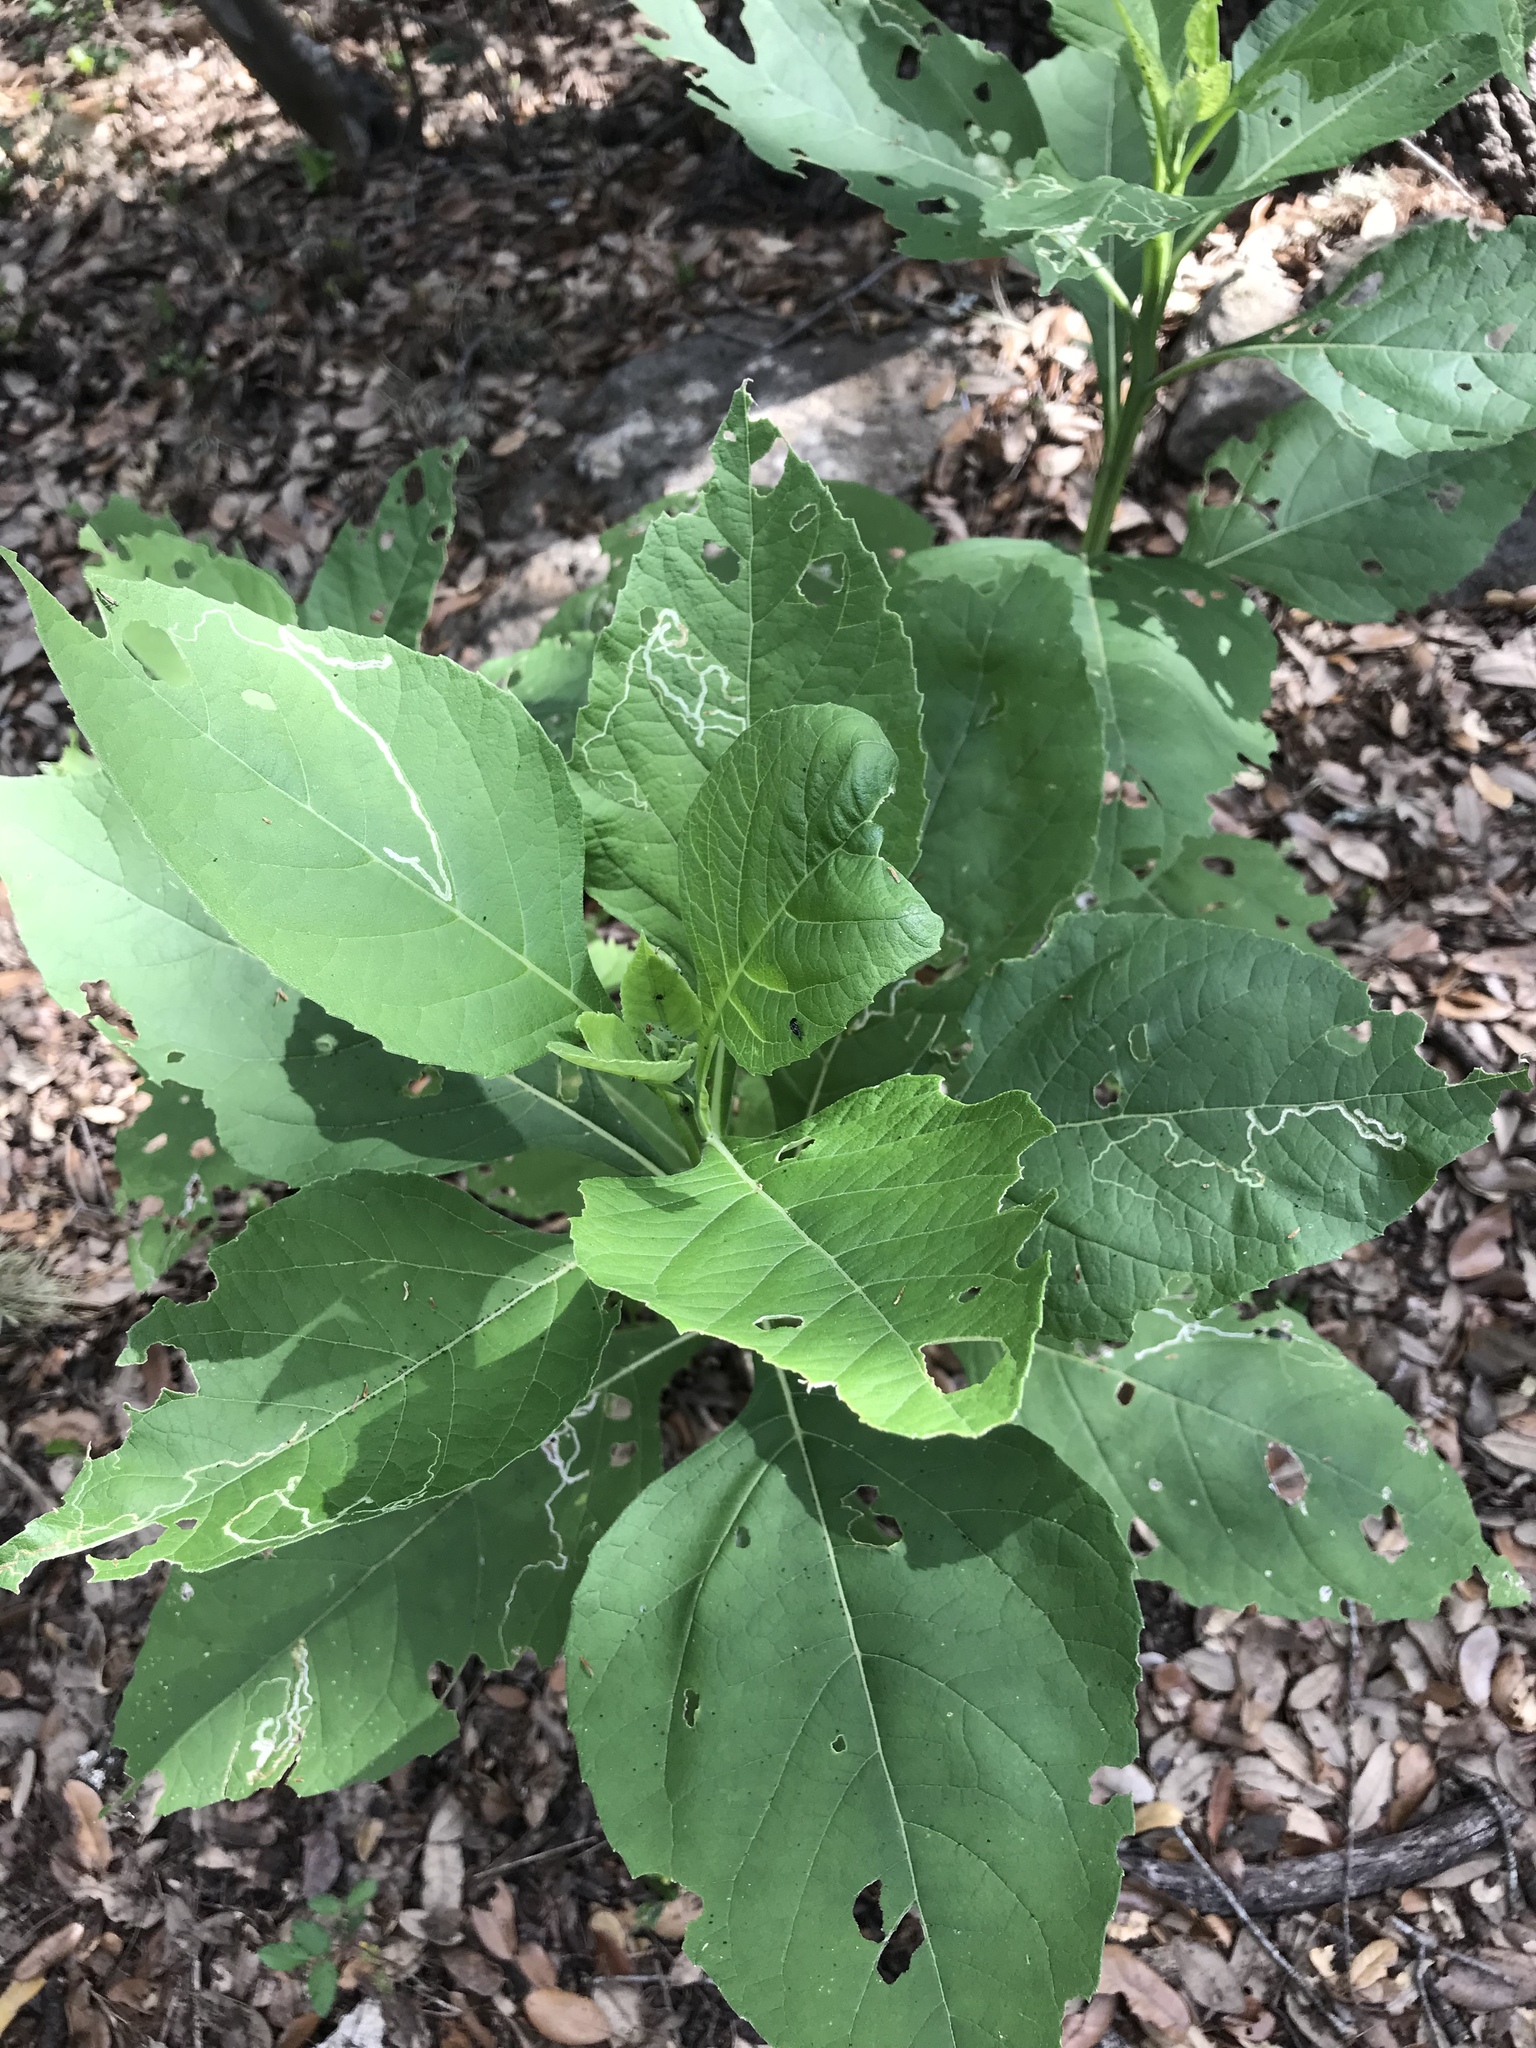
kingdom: Plantae
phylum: Tracheophyta
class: Magnoliopsida
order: Asterales
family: Asteraceae
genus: Verbesina
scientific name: Verbesina virginica
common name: Frostweed
